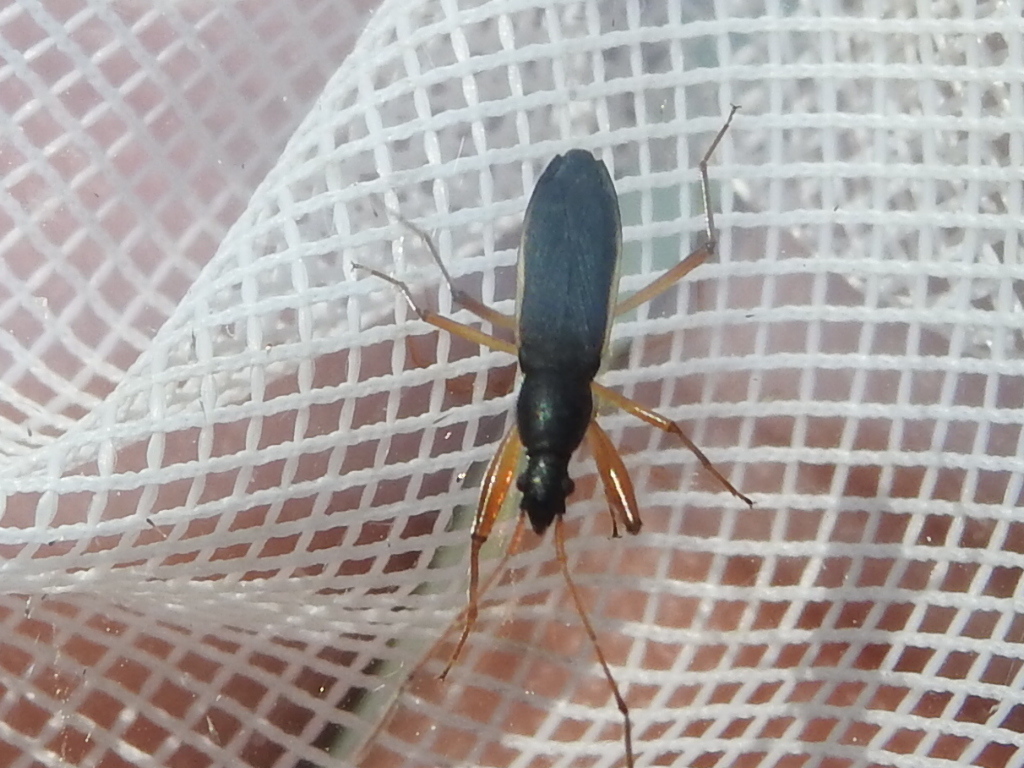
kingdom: Animalia
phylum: Arthropoda
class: Insecta
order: Hemiptera
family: Rhyparochromidae
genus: Cnemodus
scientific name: Cnemodus mavortius
